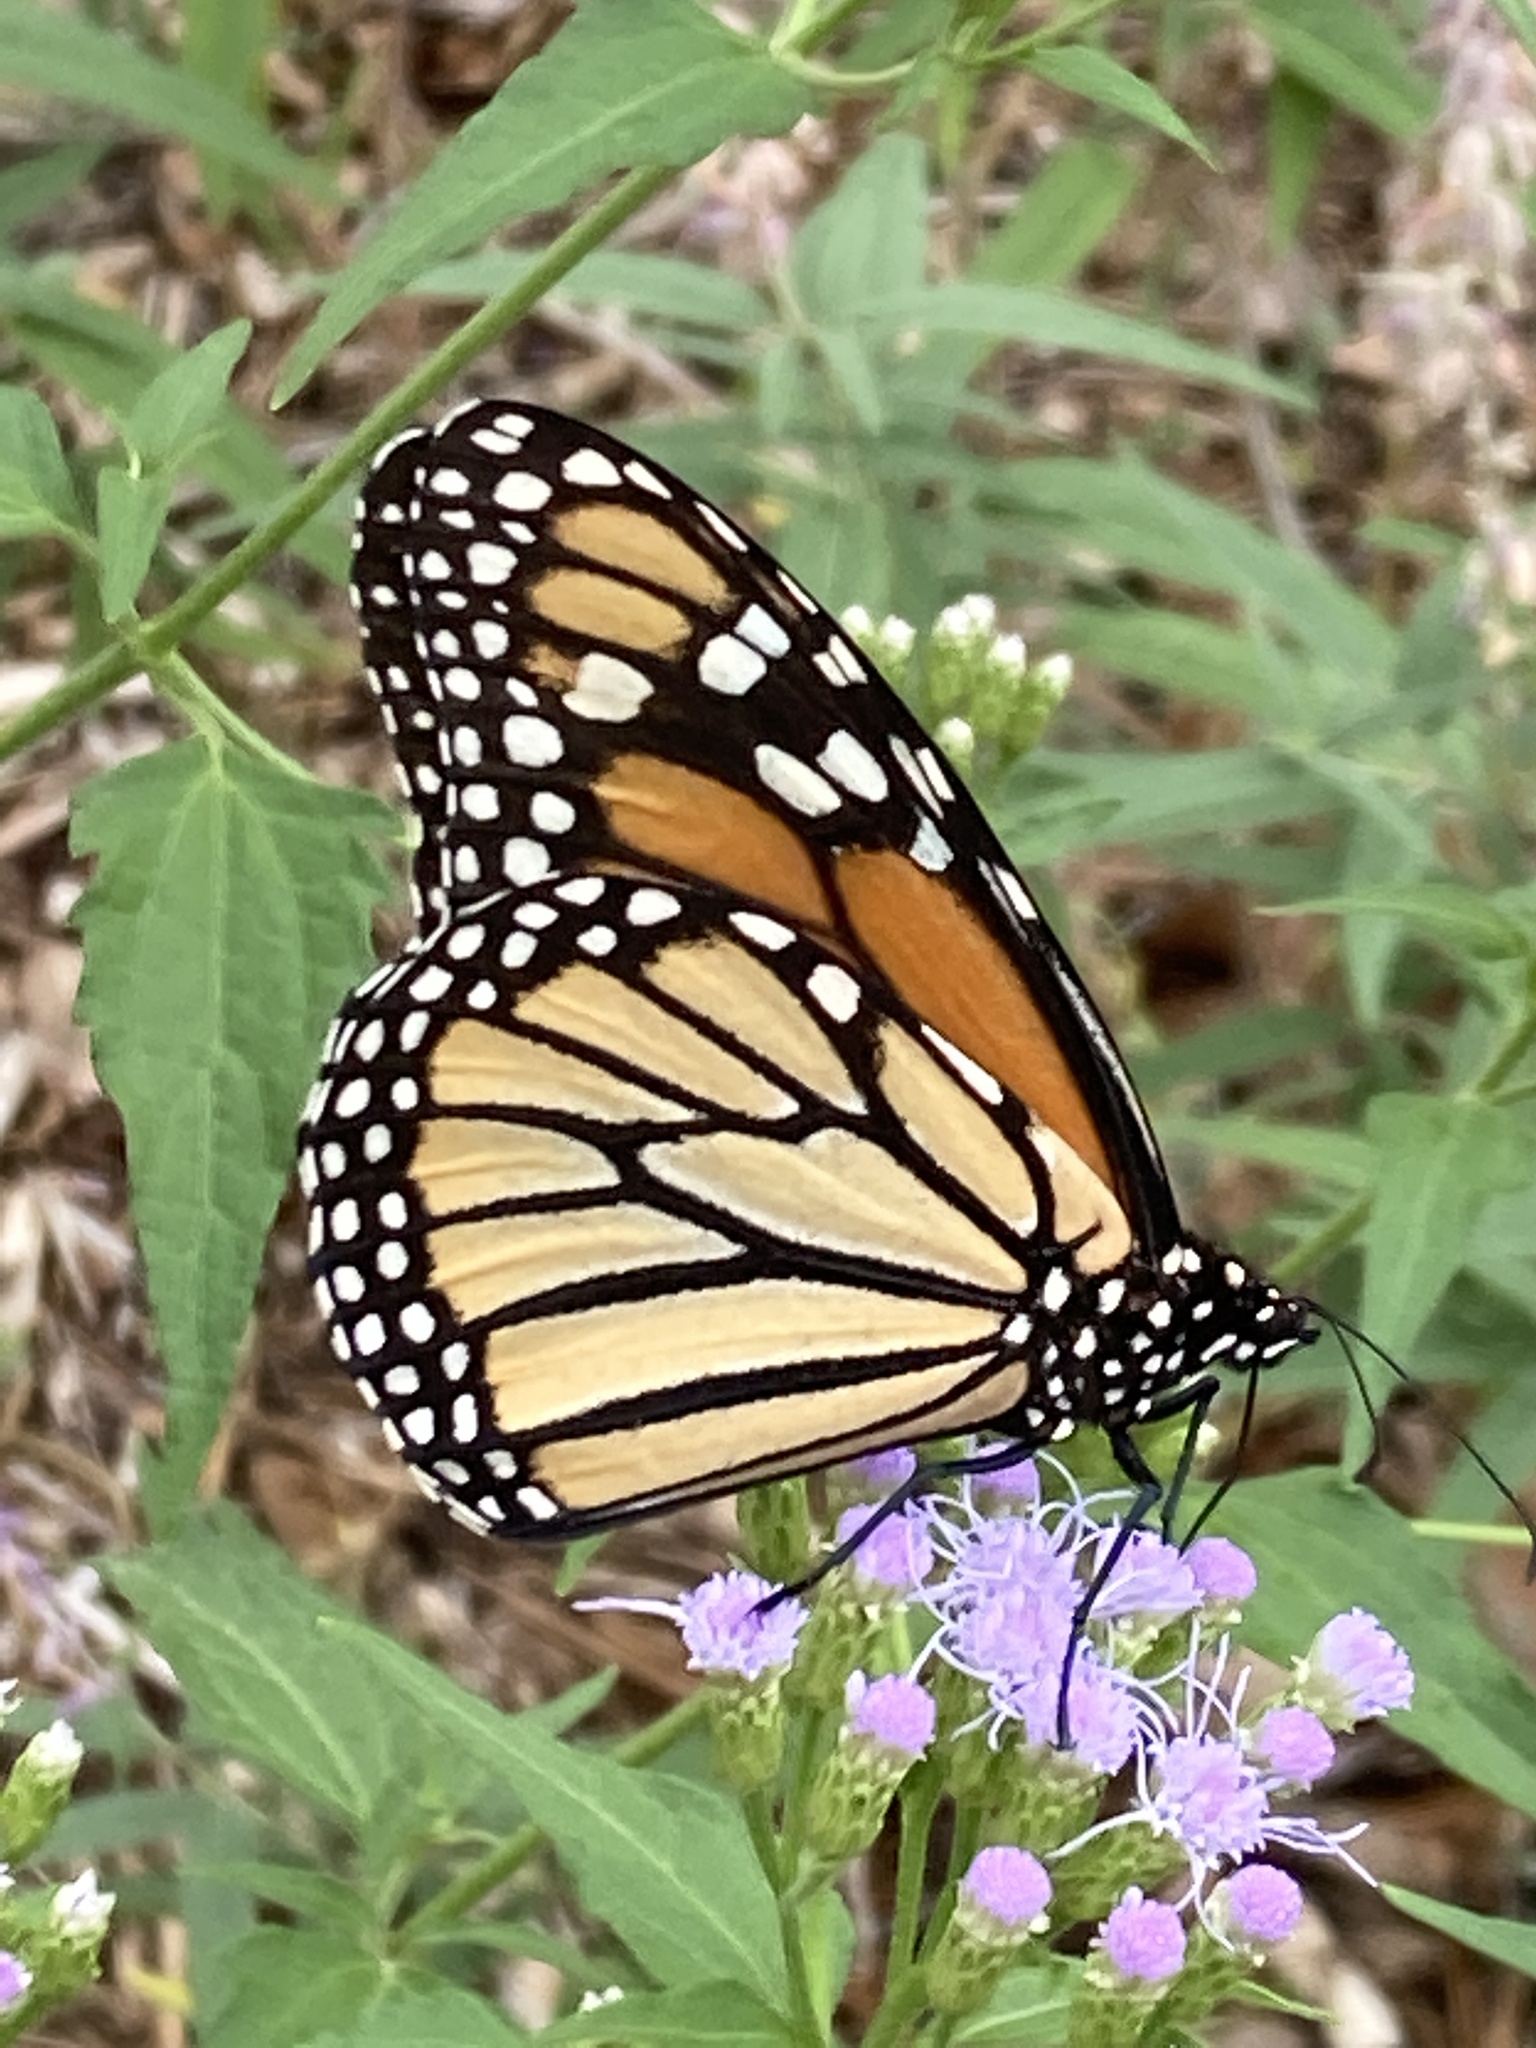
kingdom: Animalia
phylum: Arthropoda
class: Insecta
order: Lepidoptera
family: Nymphalidae
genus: Danaus
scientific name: Danaus plexippus
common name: Monarch
